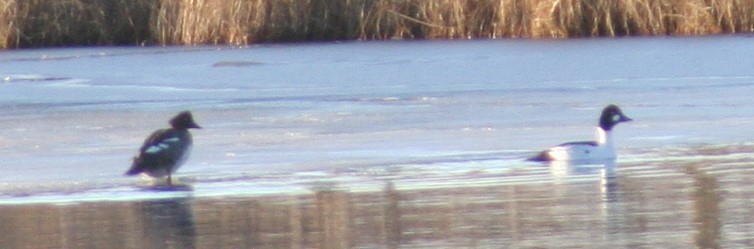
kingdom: Animalia
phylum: Chordata
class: Aves
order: Anseriformes
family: Anatidae
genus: Bucephala
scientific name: Bucephala clangula
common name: Common goldeneye
